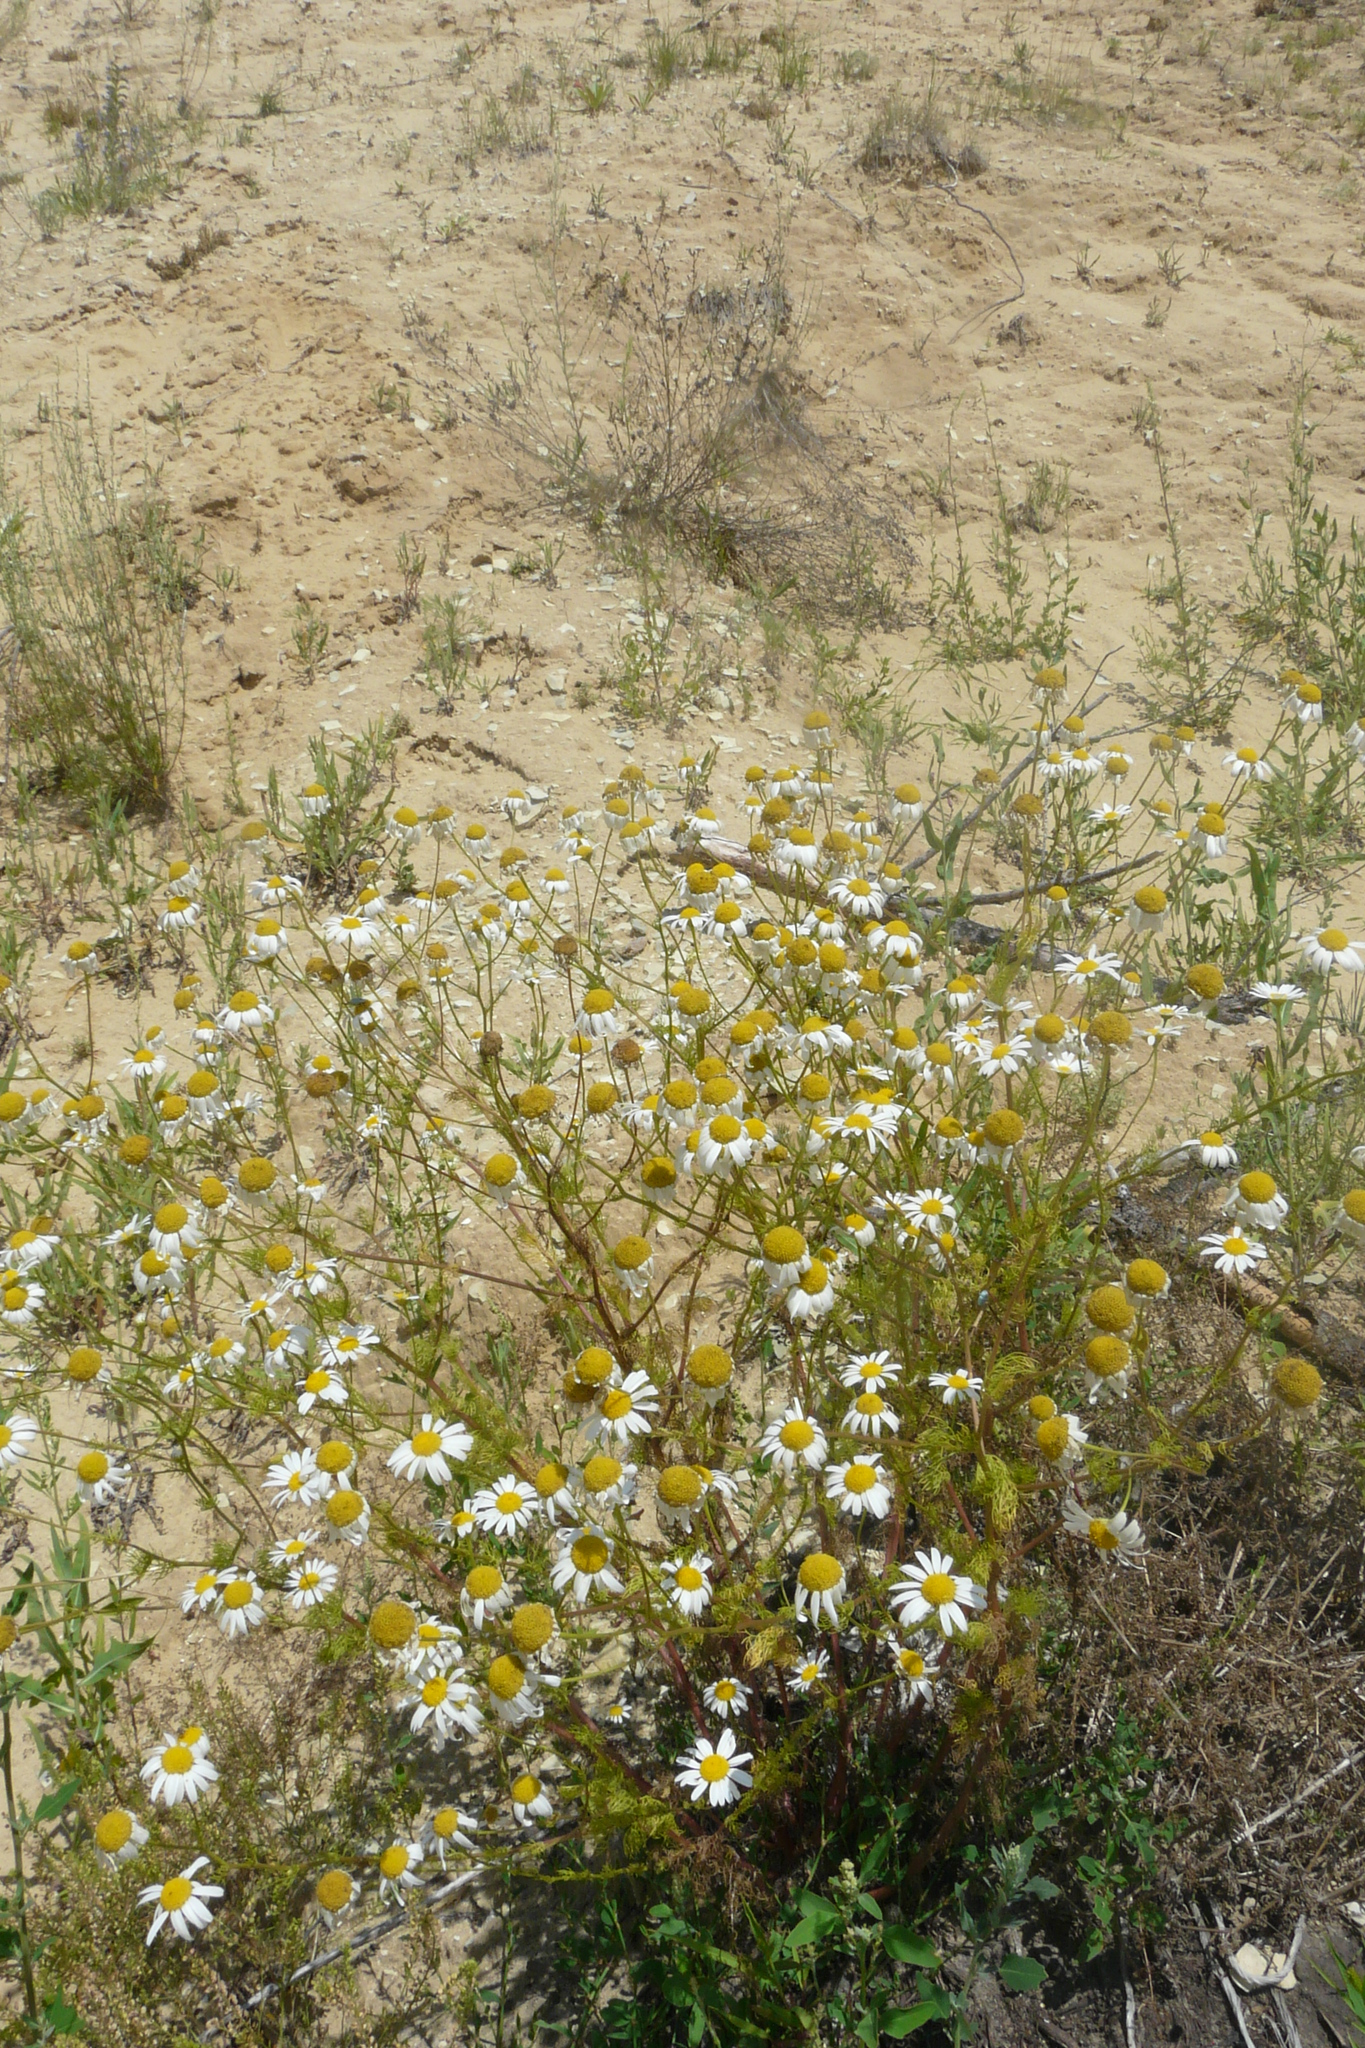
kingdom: Plantae
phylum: Tracheophyta
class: Magnoliopsida
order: Asterales
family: Asteraceae
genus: Tripleurospermum
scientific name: Tripleurospermum inodorum
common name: Scentless mayweed
